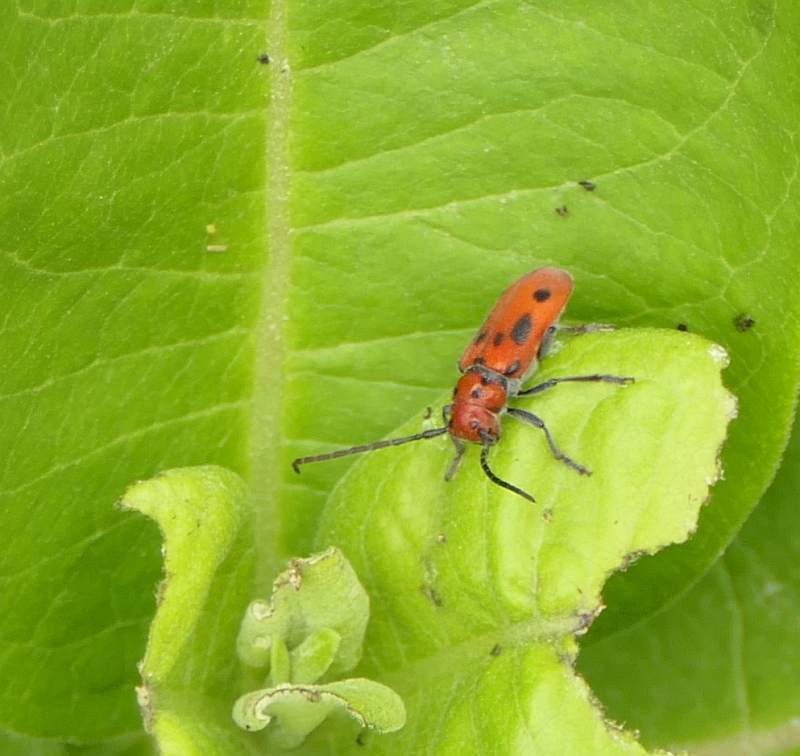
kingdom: Animalia
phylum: Arthropoda
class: Insecta
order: Coleoptera
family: Cerambycidae
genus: Tetraopes
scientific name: Tetraopes tetrophthalmus
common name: Red milkweed beetle
